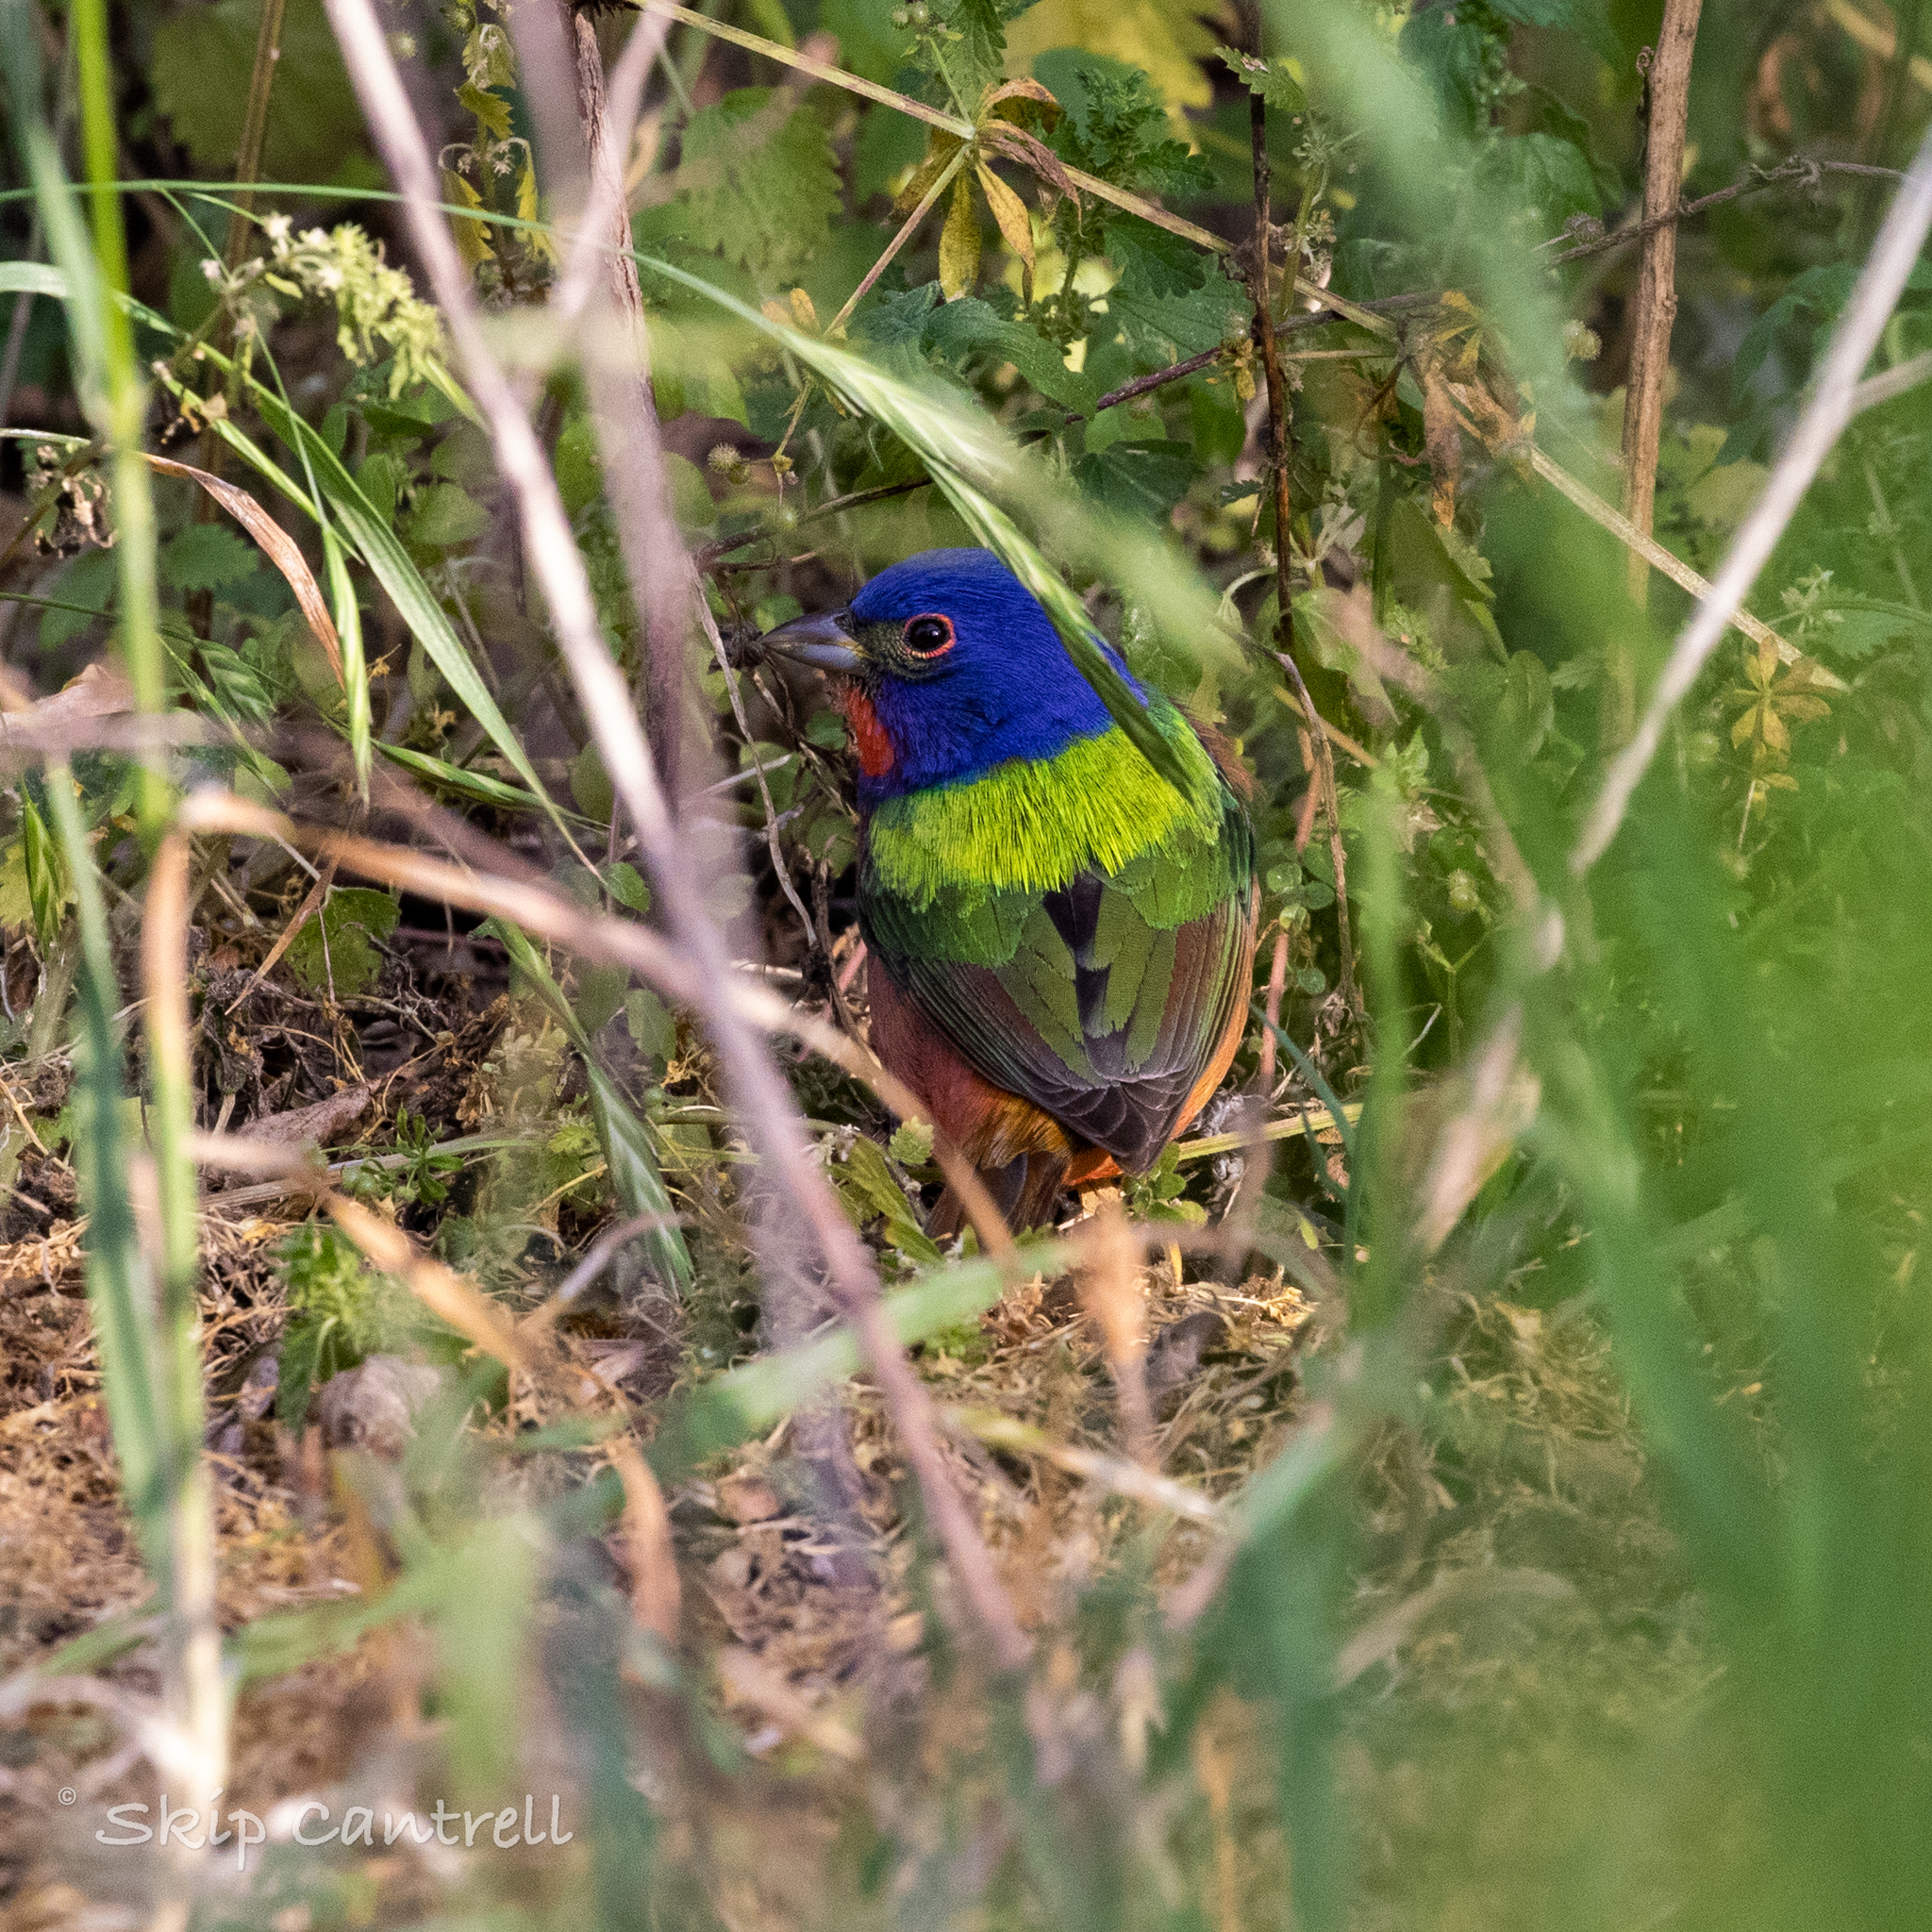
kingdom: Animalia
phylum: Chordata
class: Aves
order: Passeriformes
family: Cardinalidae
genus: Passerina
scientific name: Passerina ciris
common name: Painted bunting
